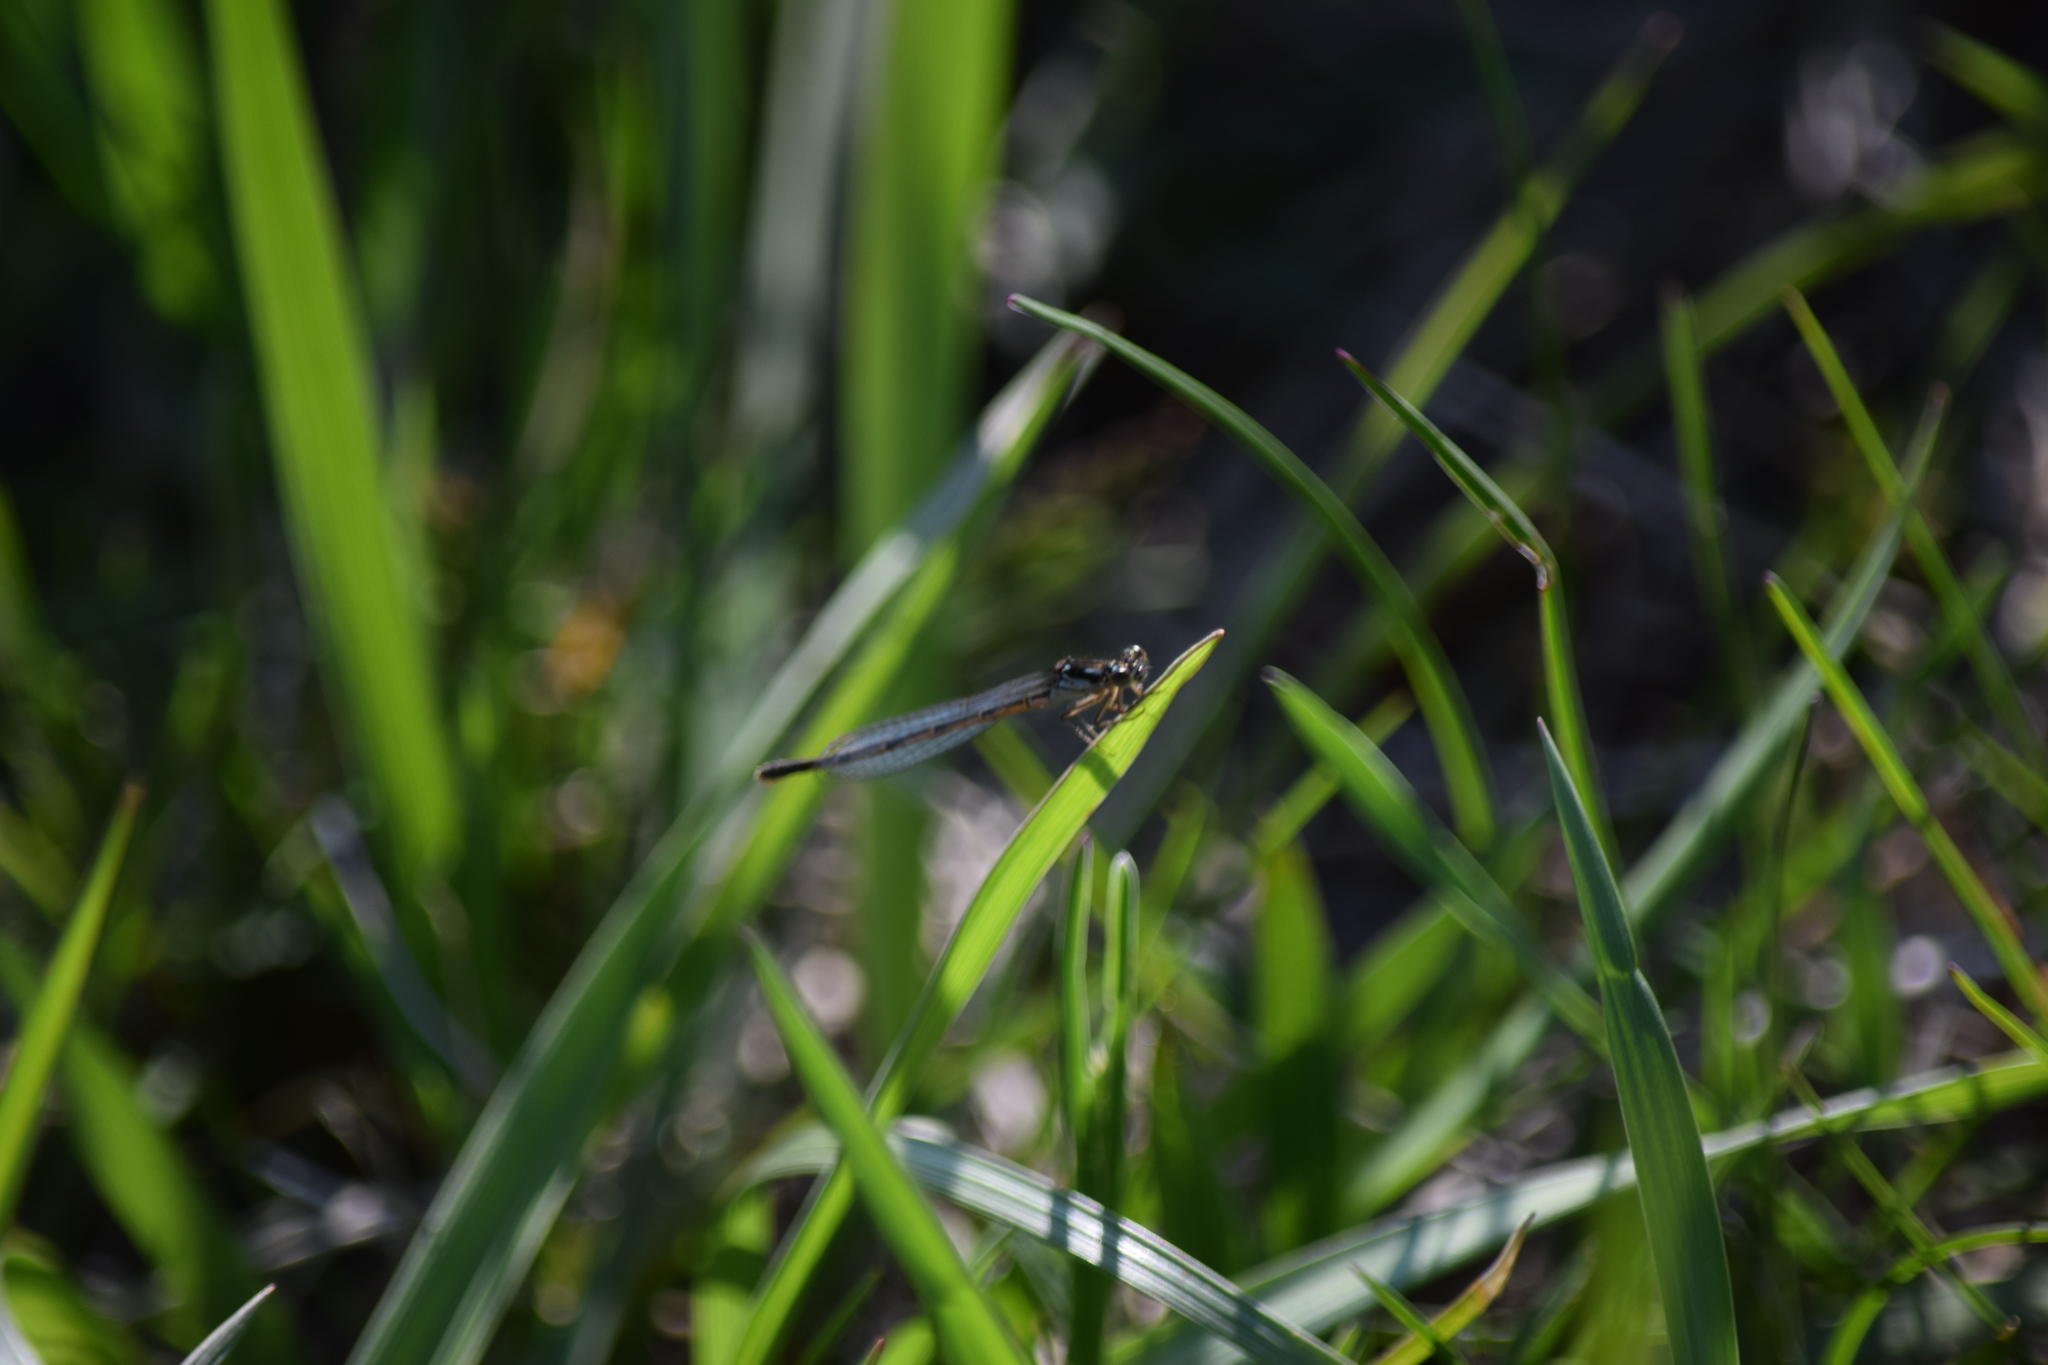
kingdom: Animalia
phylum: Arthropoda
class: Insecta
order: Odonata
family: Coenagrionidae
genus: Ischnura
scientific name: Ischnura posita
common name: Fragile forktail
